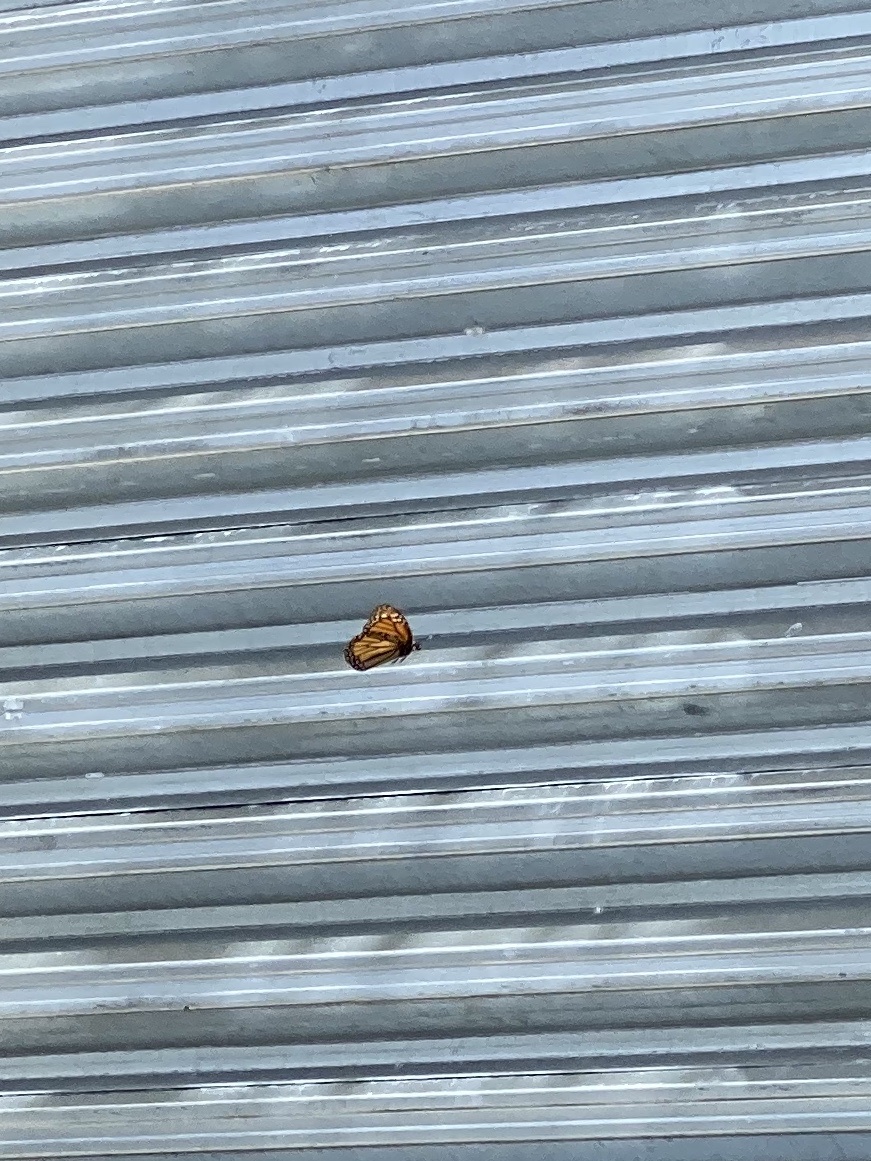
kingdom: Animalia
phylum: Arthropoda
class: Insecta
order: Lepidoptera
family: Nymphalidae
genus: Danaus
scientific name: Danaus plexippus
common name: Monarch
